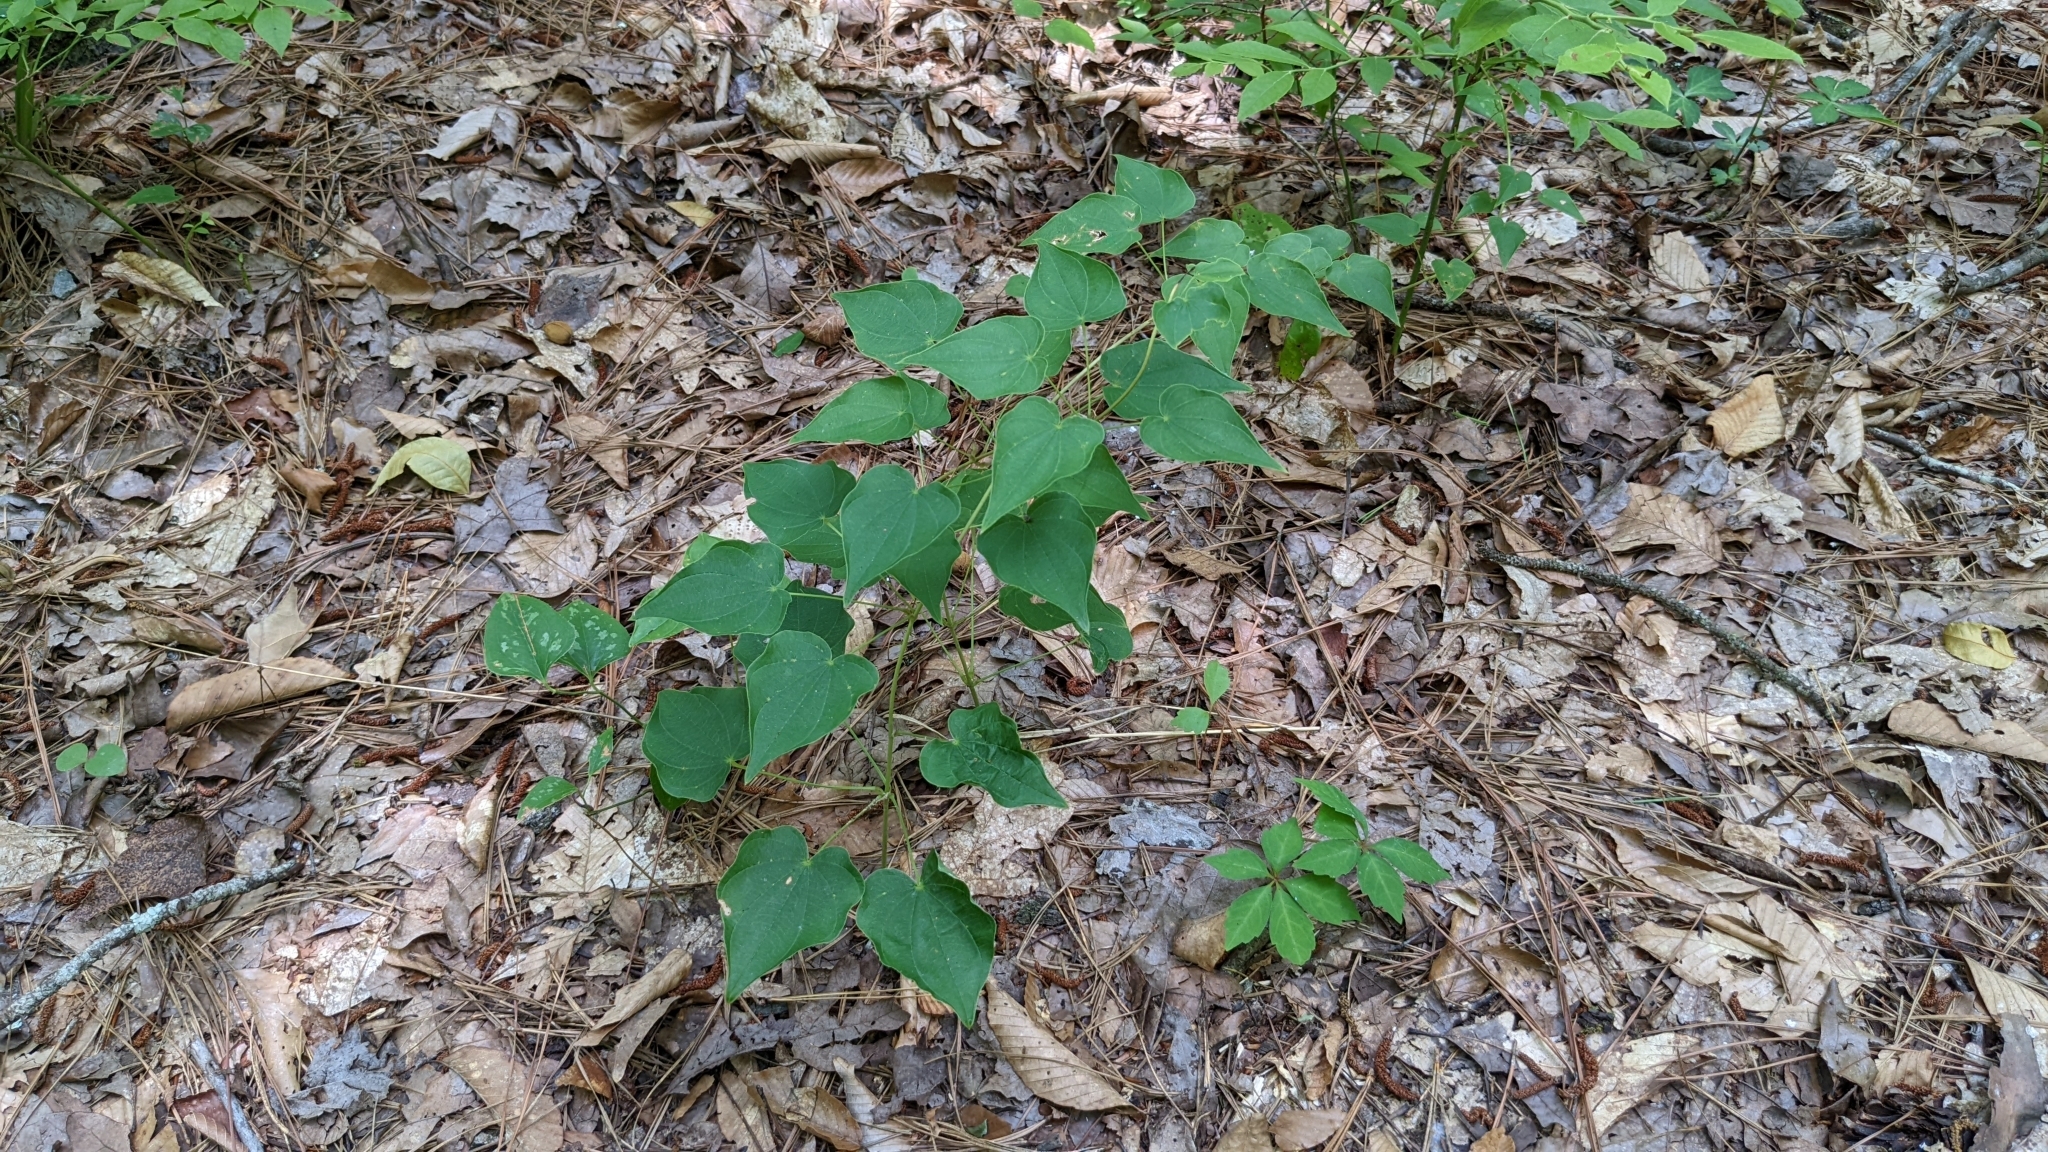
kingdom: Plantae
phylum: Tracheophyta
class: Liliopsida
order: Dioscoreales
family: Dioscoreaceae
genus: Dioscorea
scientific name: Dioscorea villosa
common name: Wild yam
